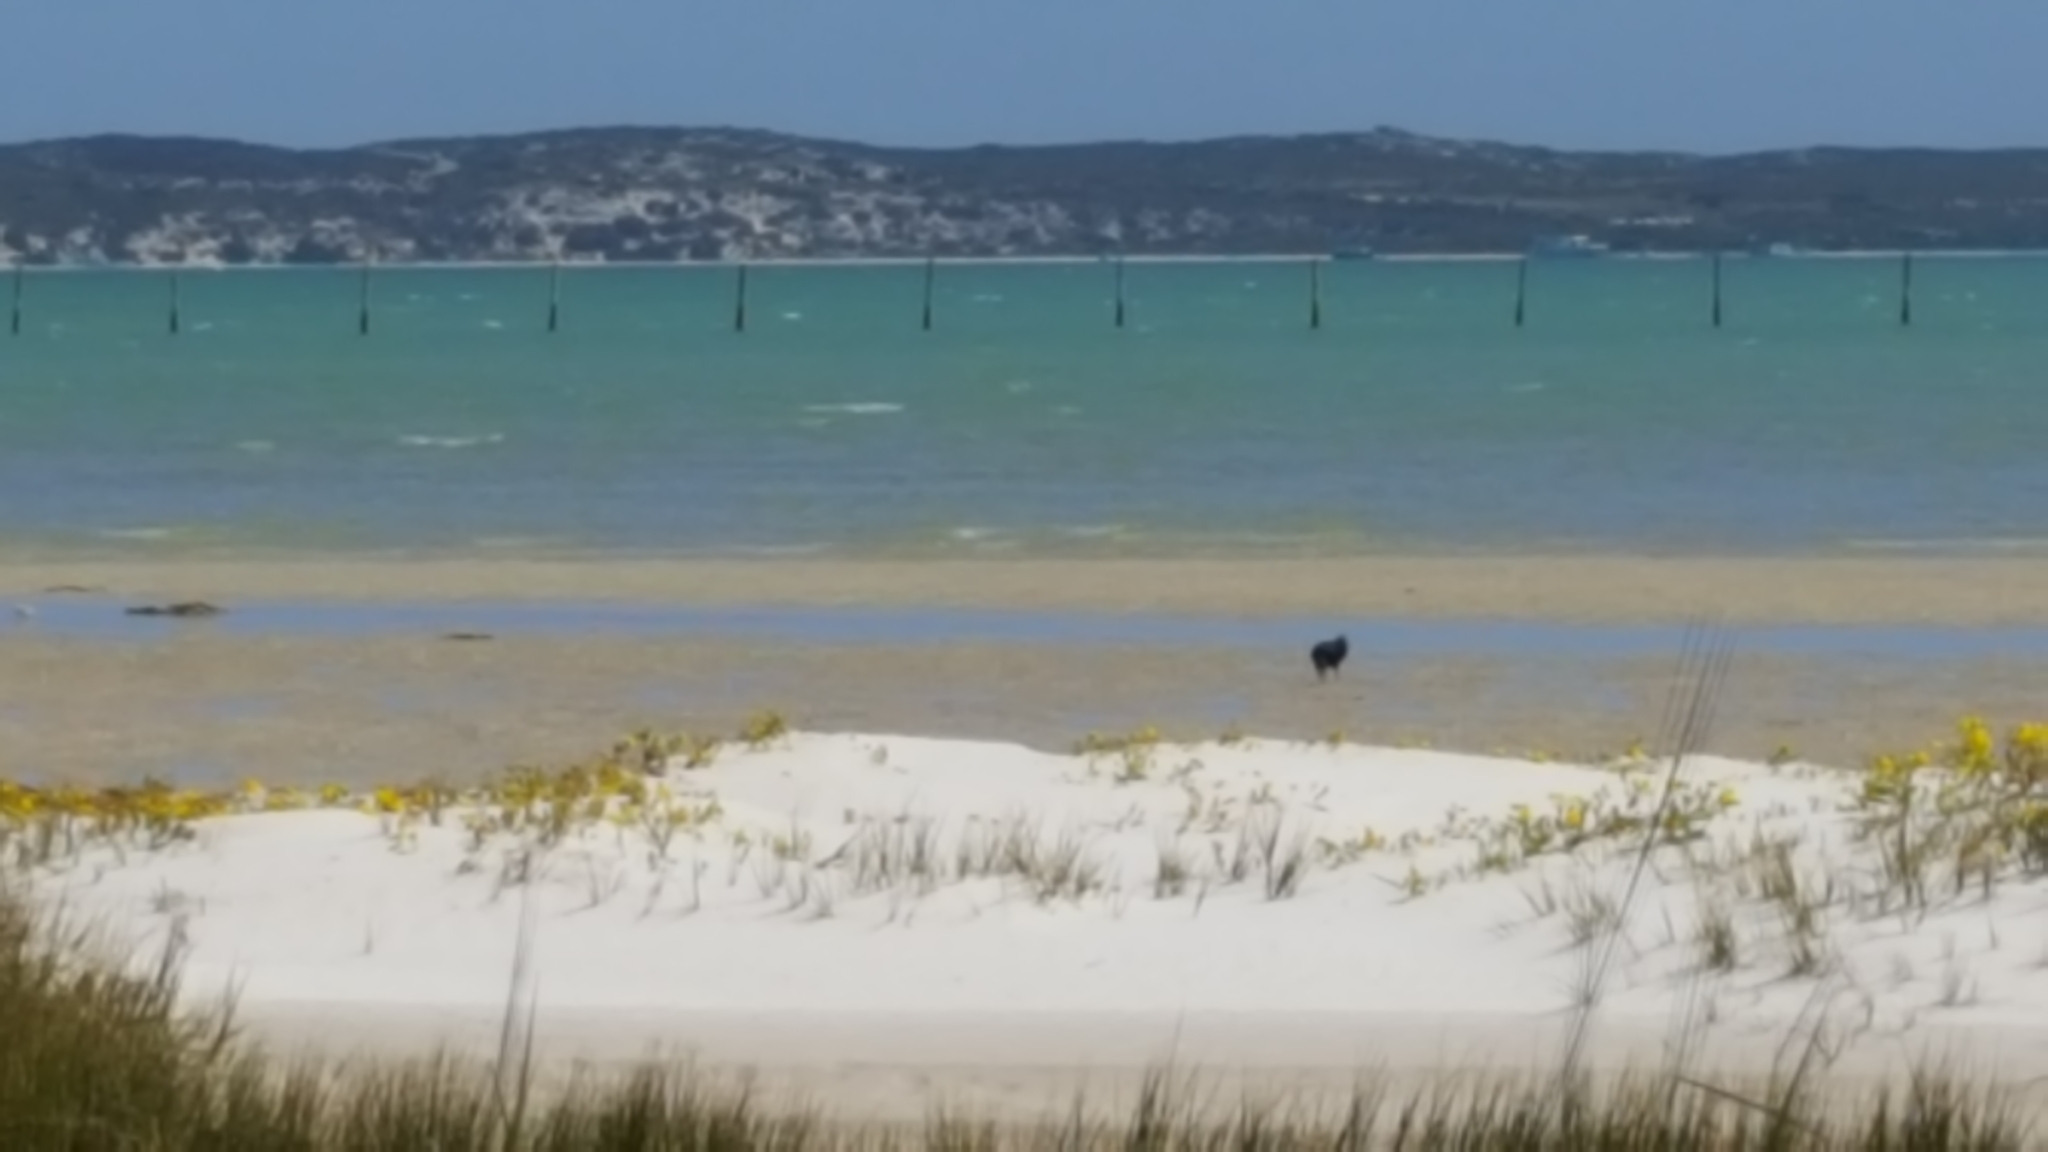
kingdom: Animalia
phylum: Chordata
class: Aves
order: Charadriiformes
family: Haematopodidae
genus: Haematopus
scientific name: Haematopus moquini
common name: African oystercatcher
